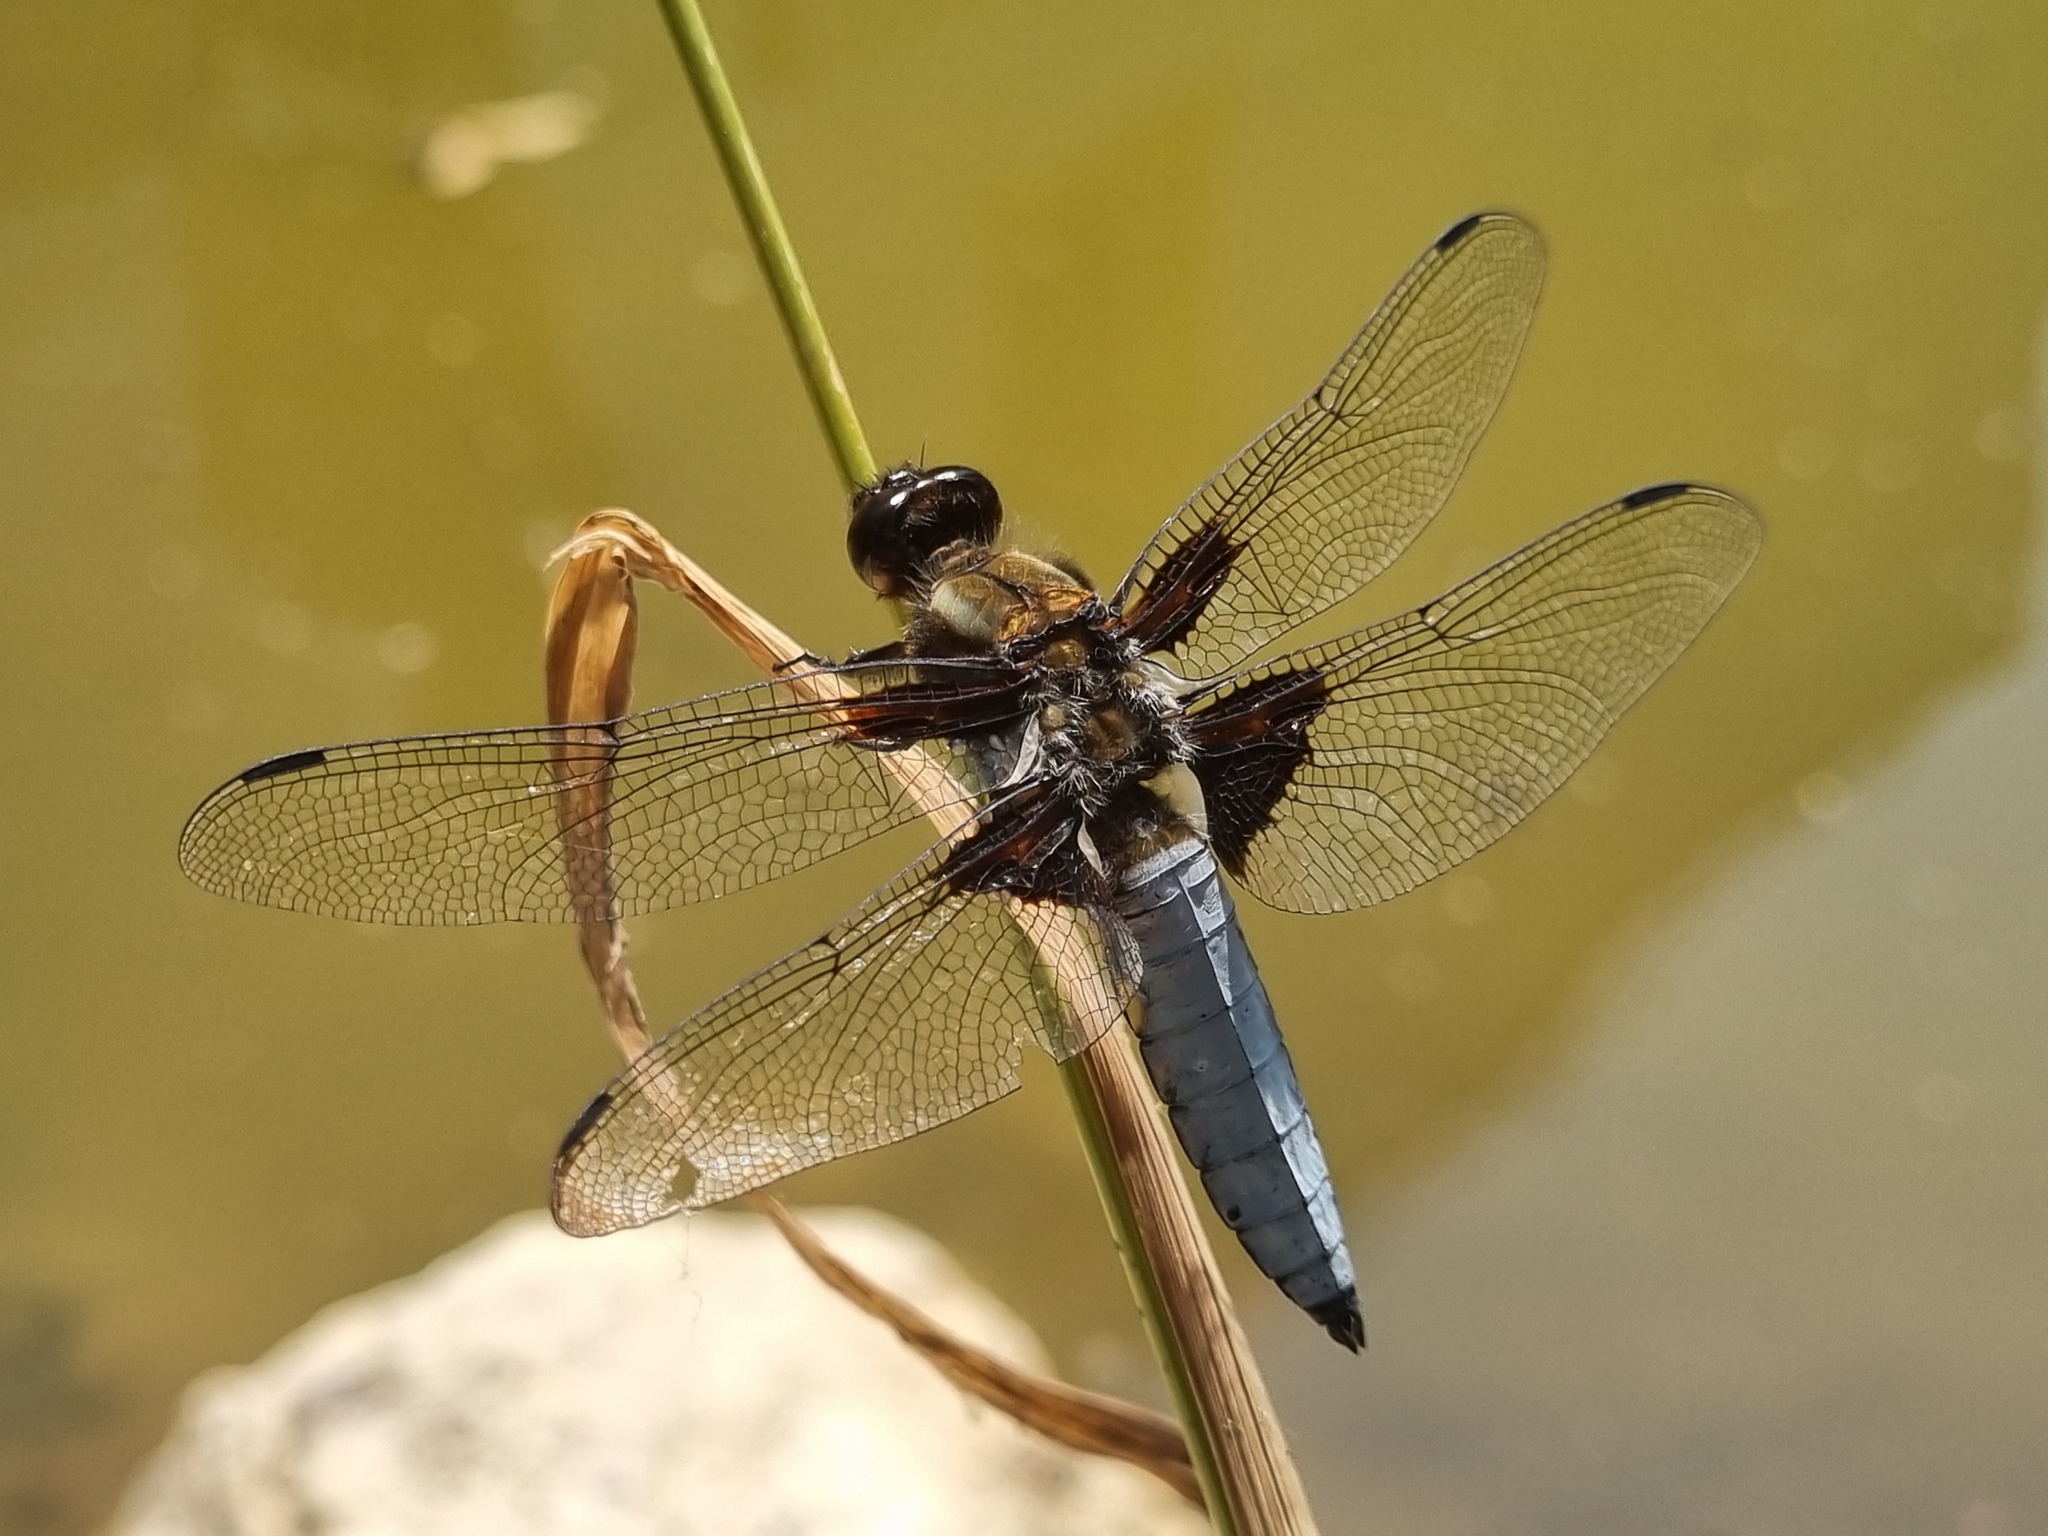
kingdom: Animalia
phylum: Arthropoda
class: Insecta
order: Odonata
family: Libellulidae
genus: Libellula
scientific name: Libellula depressa
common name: Broad-bodied chaser
